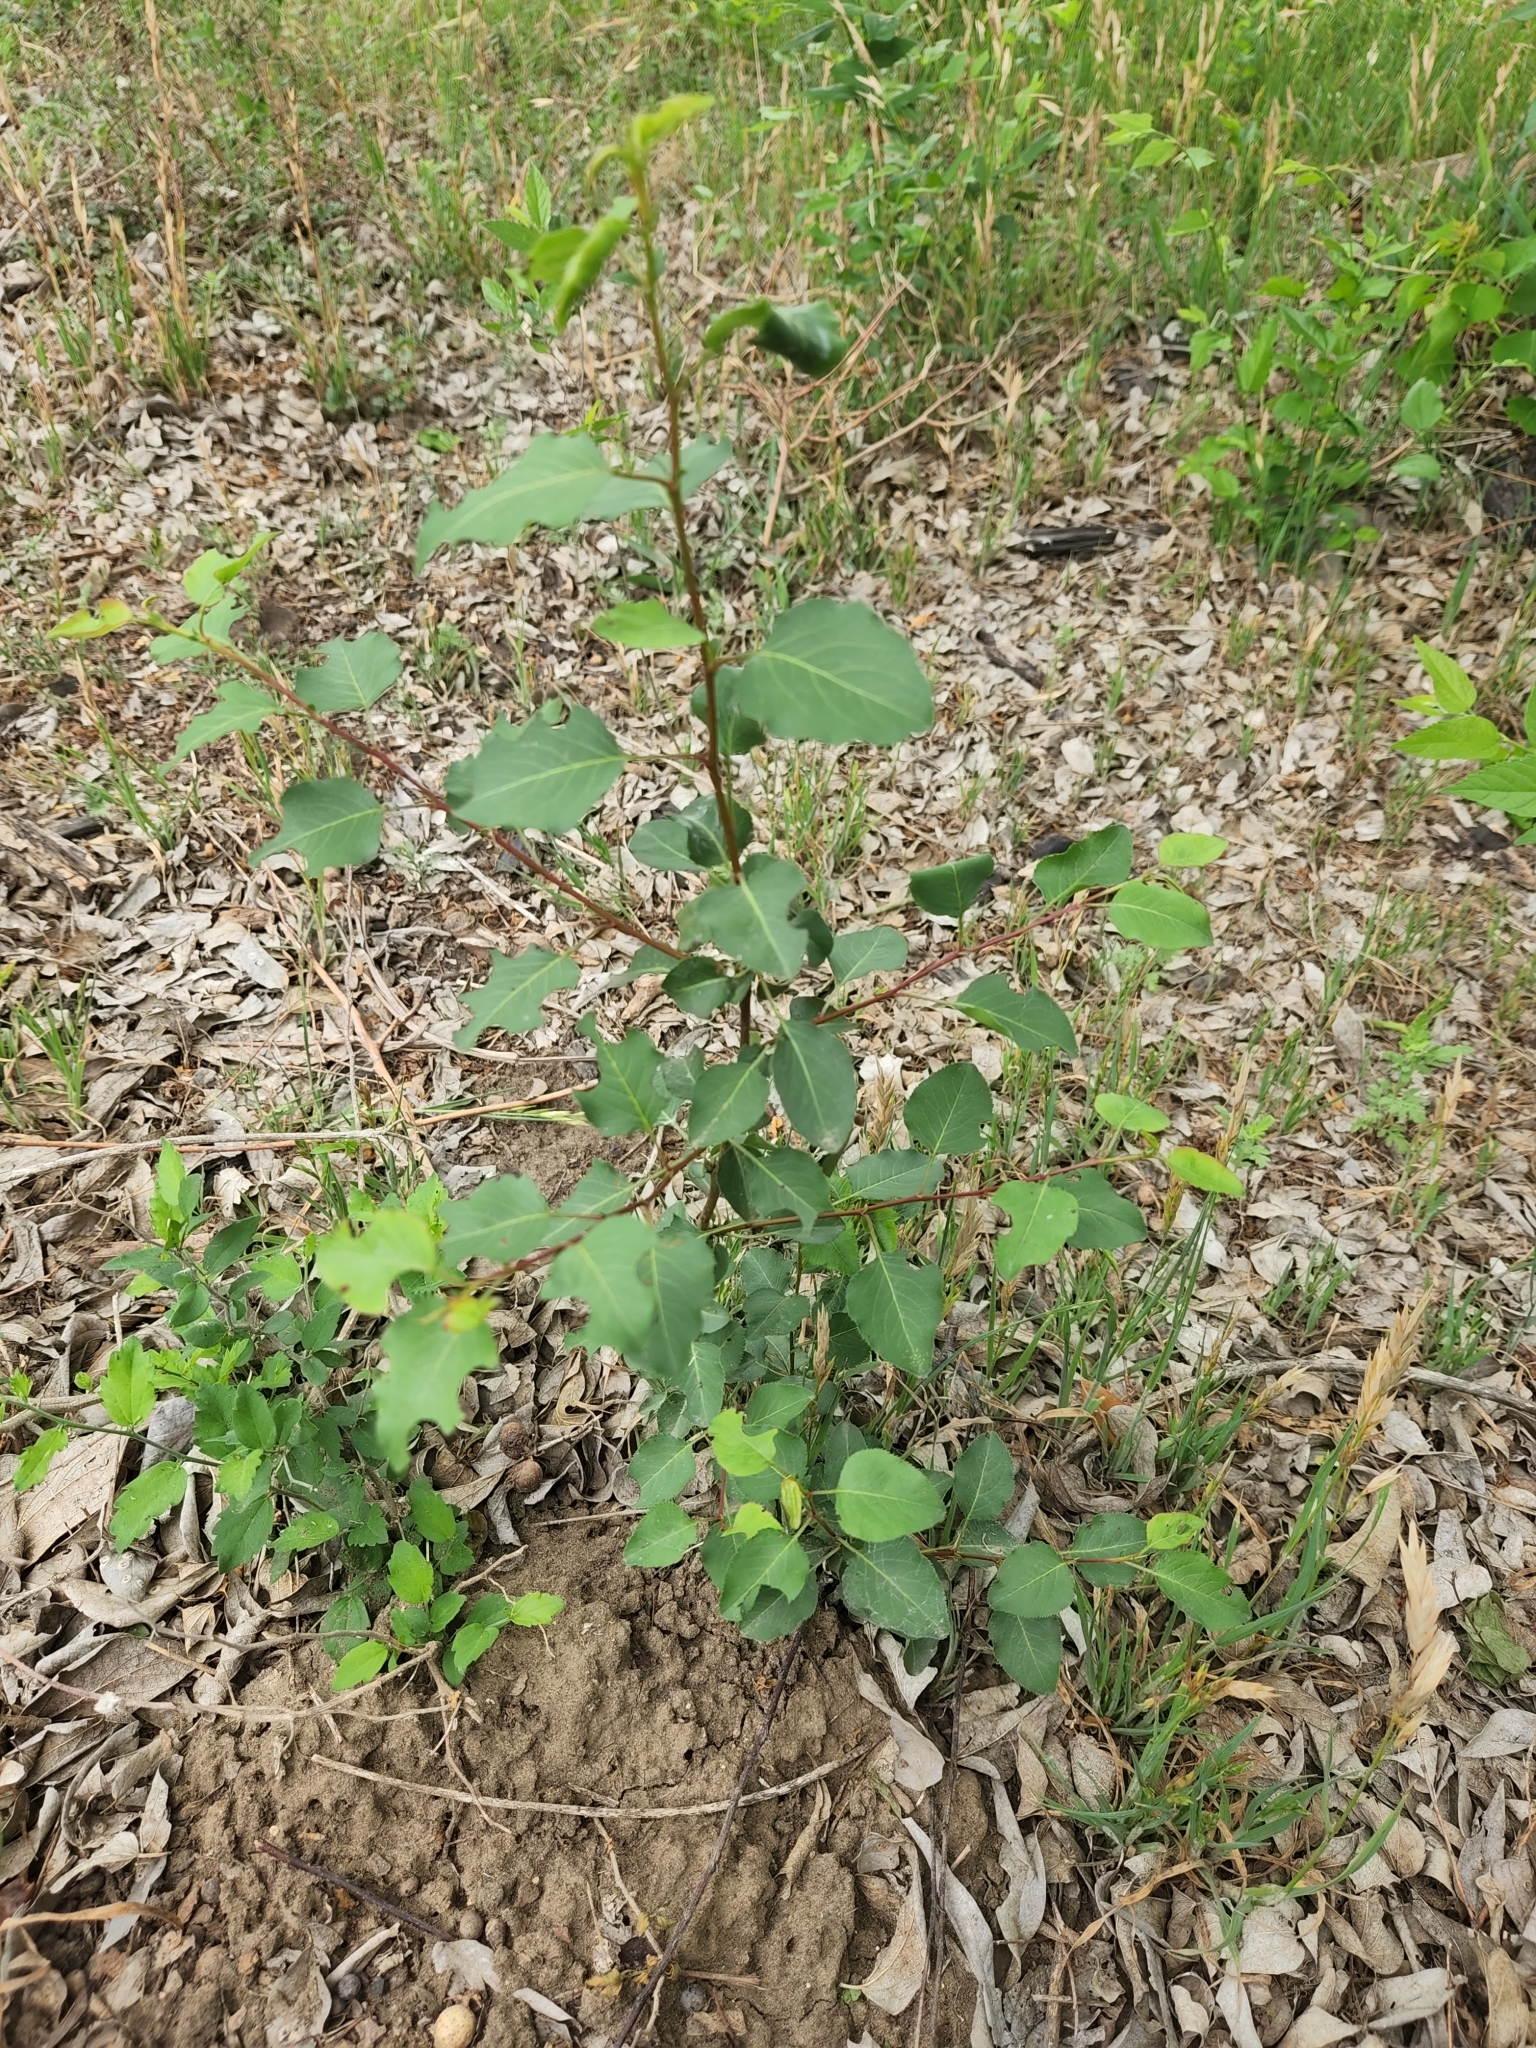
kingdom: Plantae
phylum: Tracheophyta
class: Magnoliopsida
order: Rosales
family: Rosaceae
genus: Pyrus
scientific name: Pyrus calleryana
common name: Callery pear
